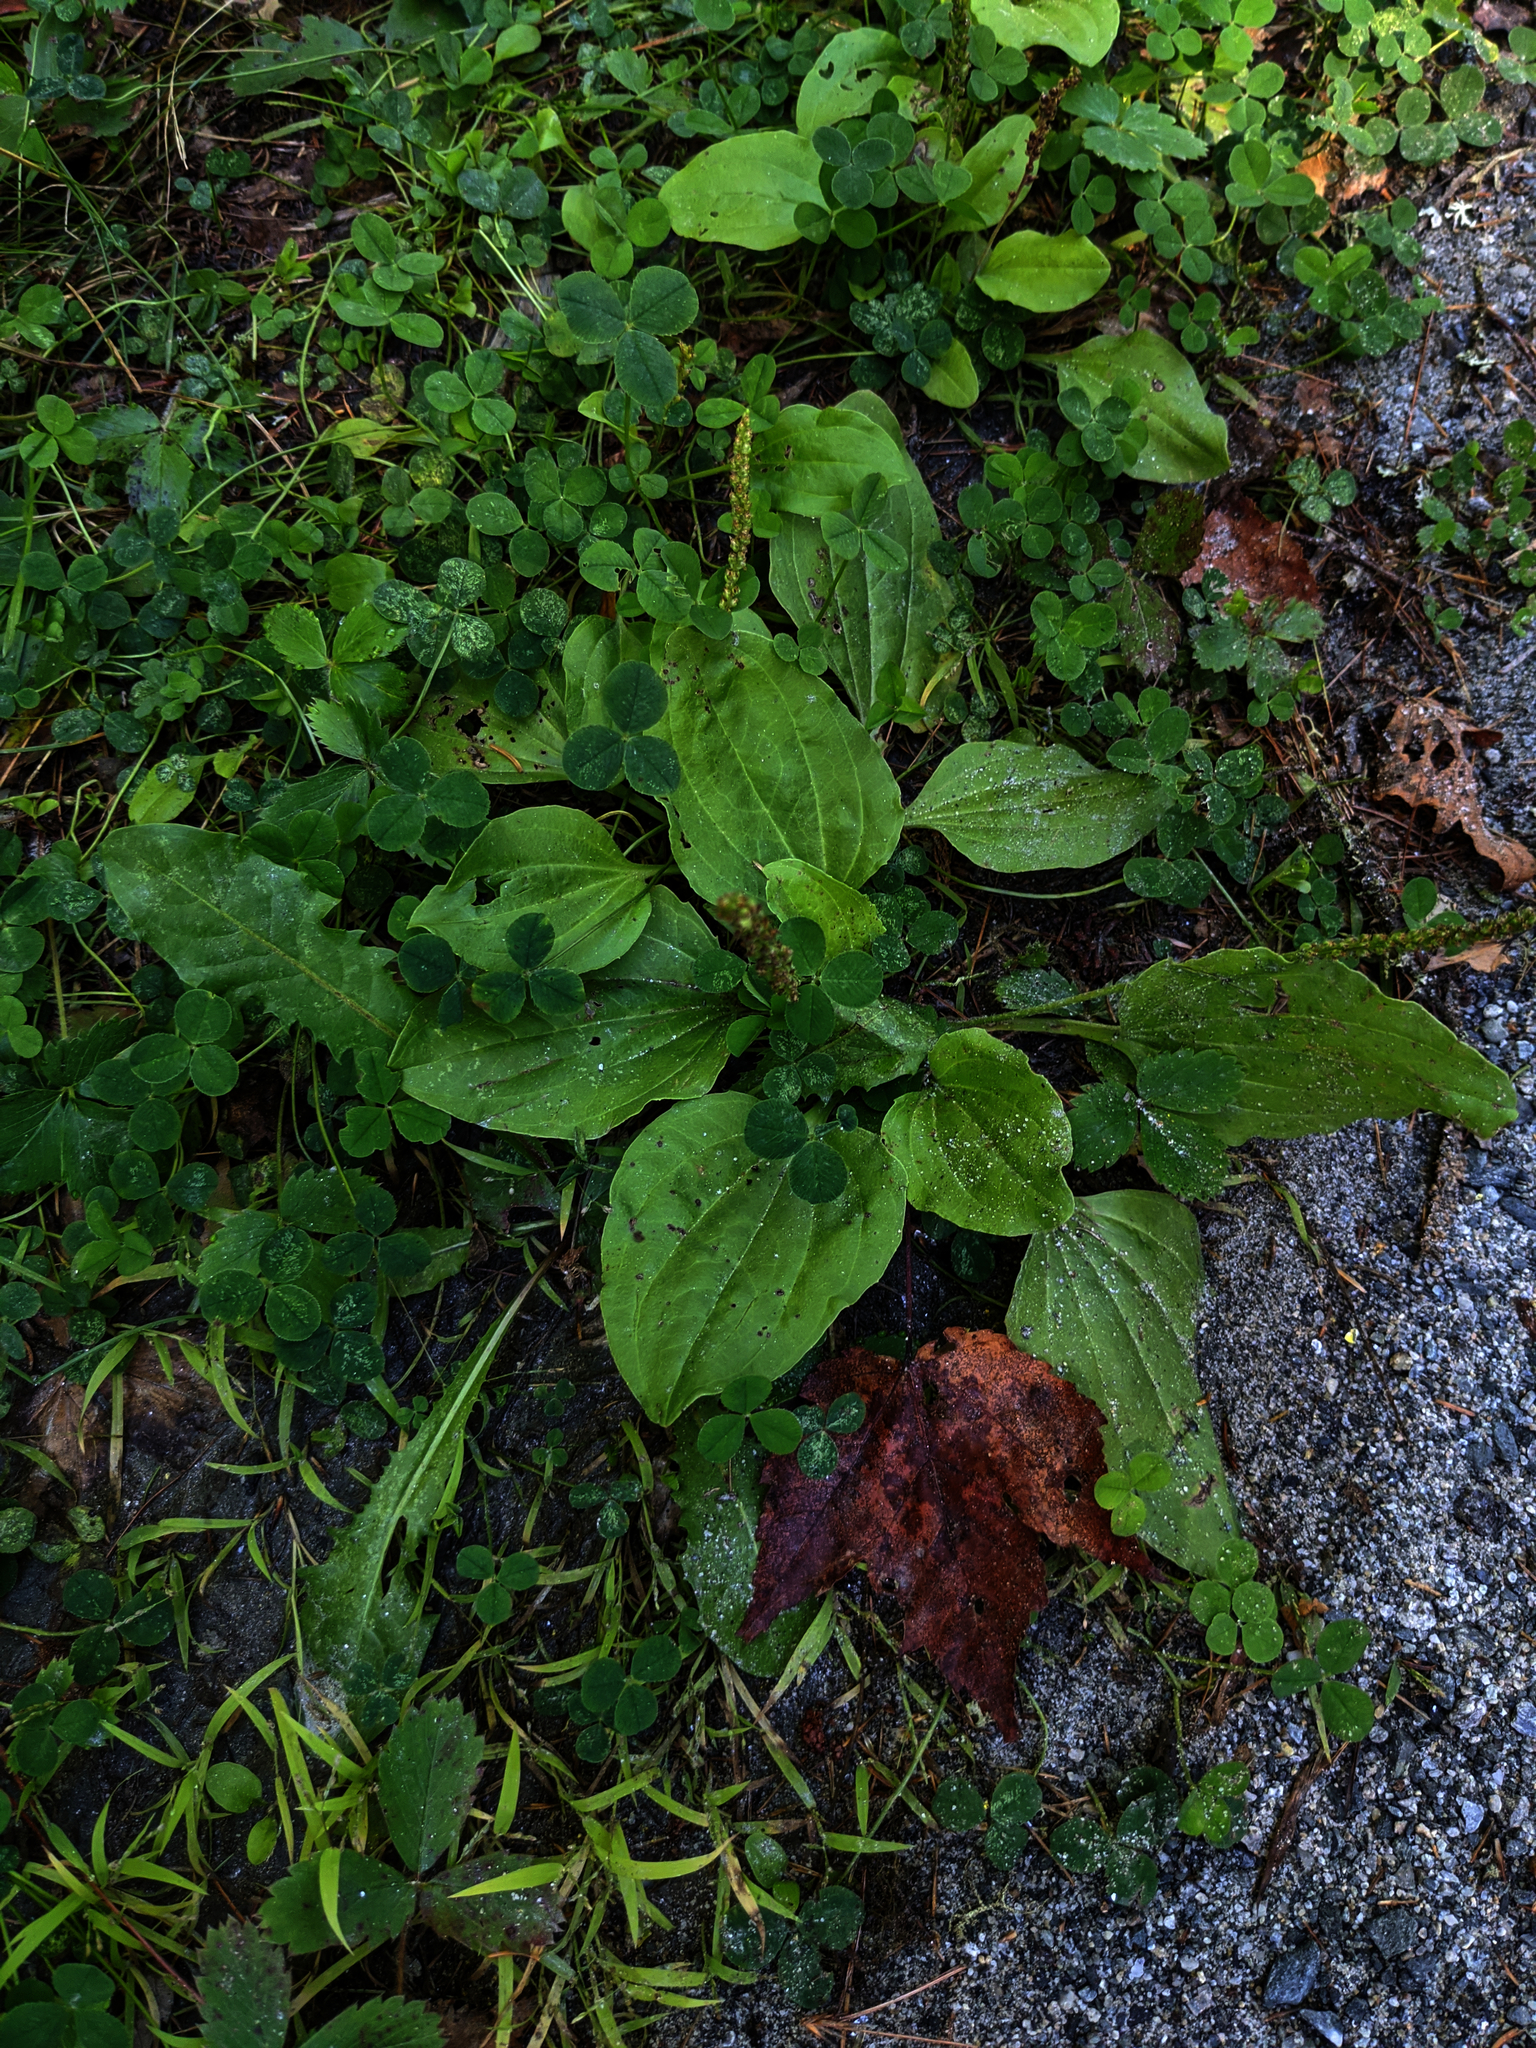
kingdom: Plantae
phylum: Tracheophyta
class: Magnoliopsida
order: Lamiales
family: Plantaginaceae
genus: Plantago
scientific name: Plantago major
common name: Common plantain
